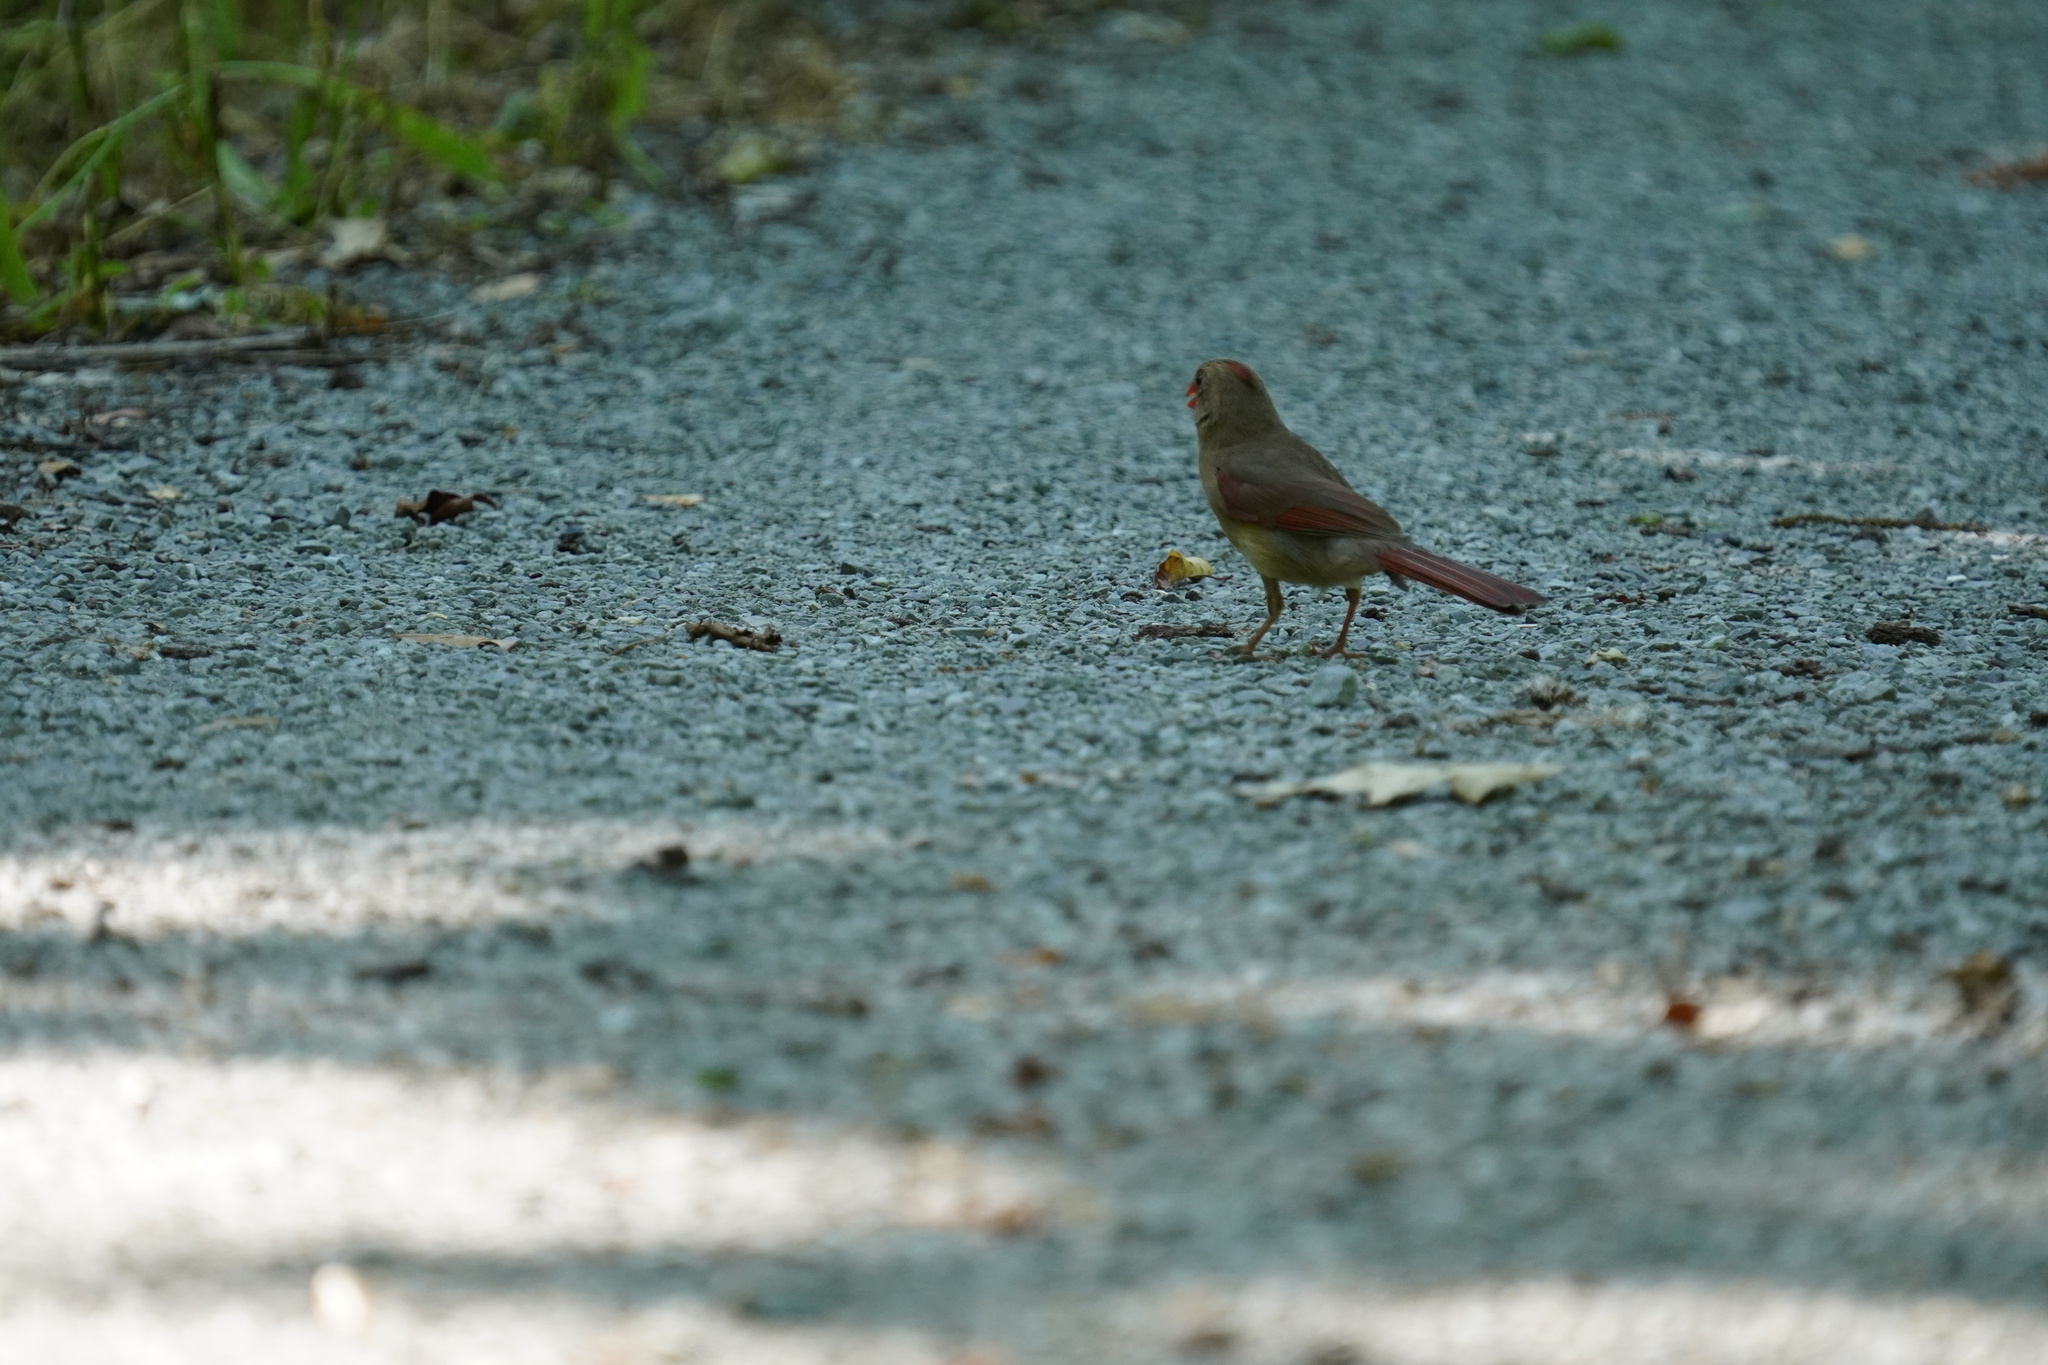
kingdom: Animalia
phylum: Chordata
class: Aves
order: Passeriformes
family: Cardinalidae
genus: Cardinalis
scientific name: Cardinalis cardinalis
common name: Northern cardinal
